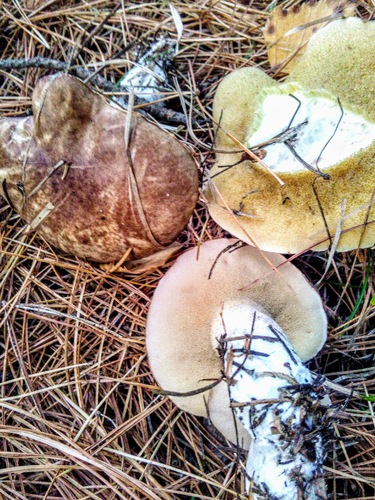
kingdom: Fungi
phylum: Basidiomycota
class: Agaricomycetes
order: Boletales
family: Suillaceae
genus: Suillus
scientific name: Suillus placidus
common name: Slippery white bolete
